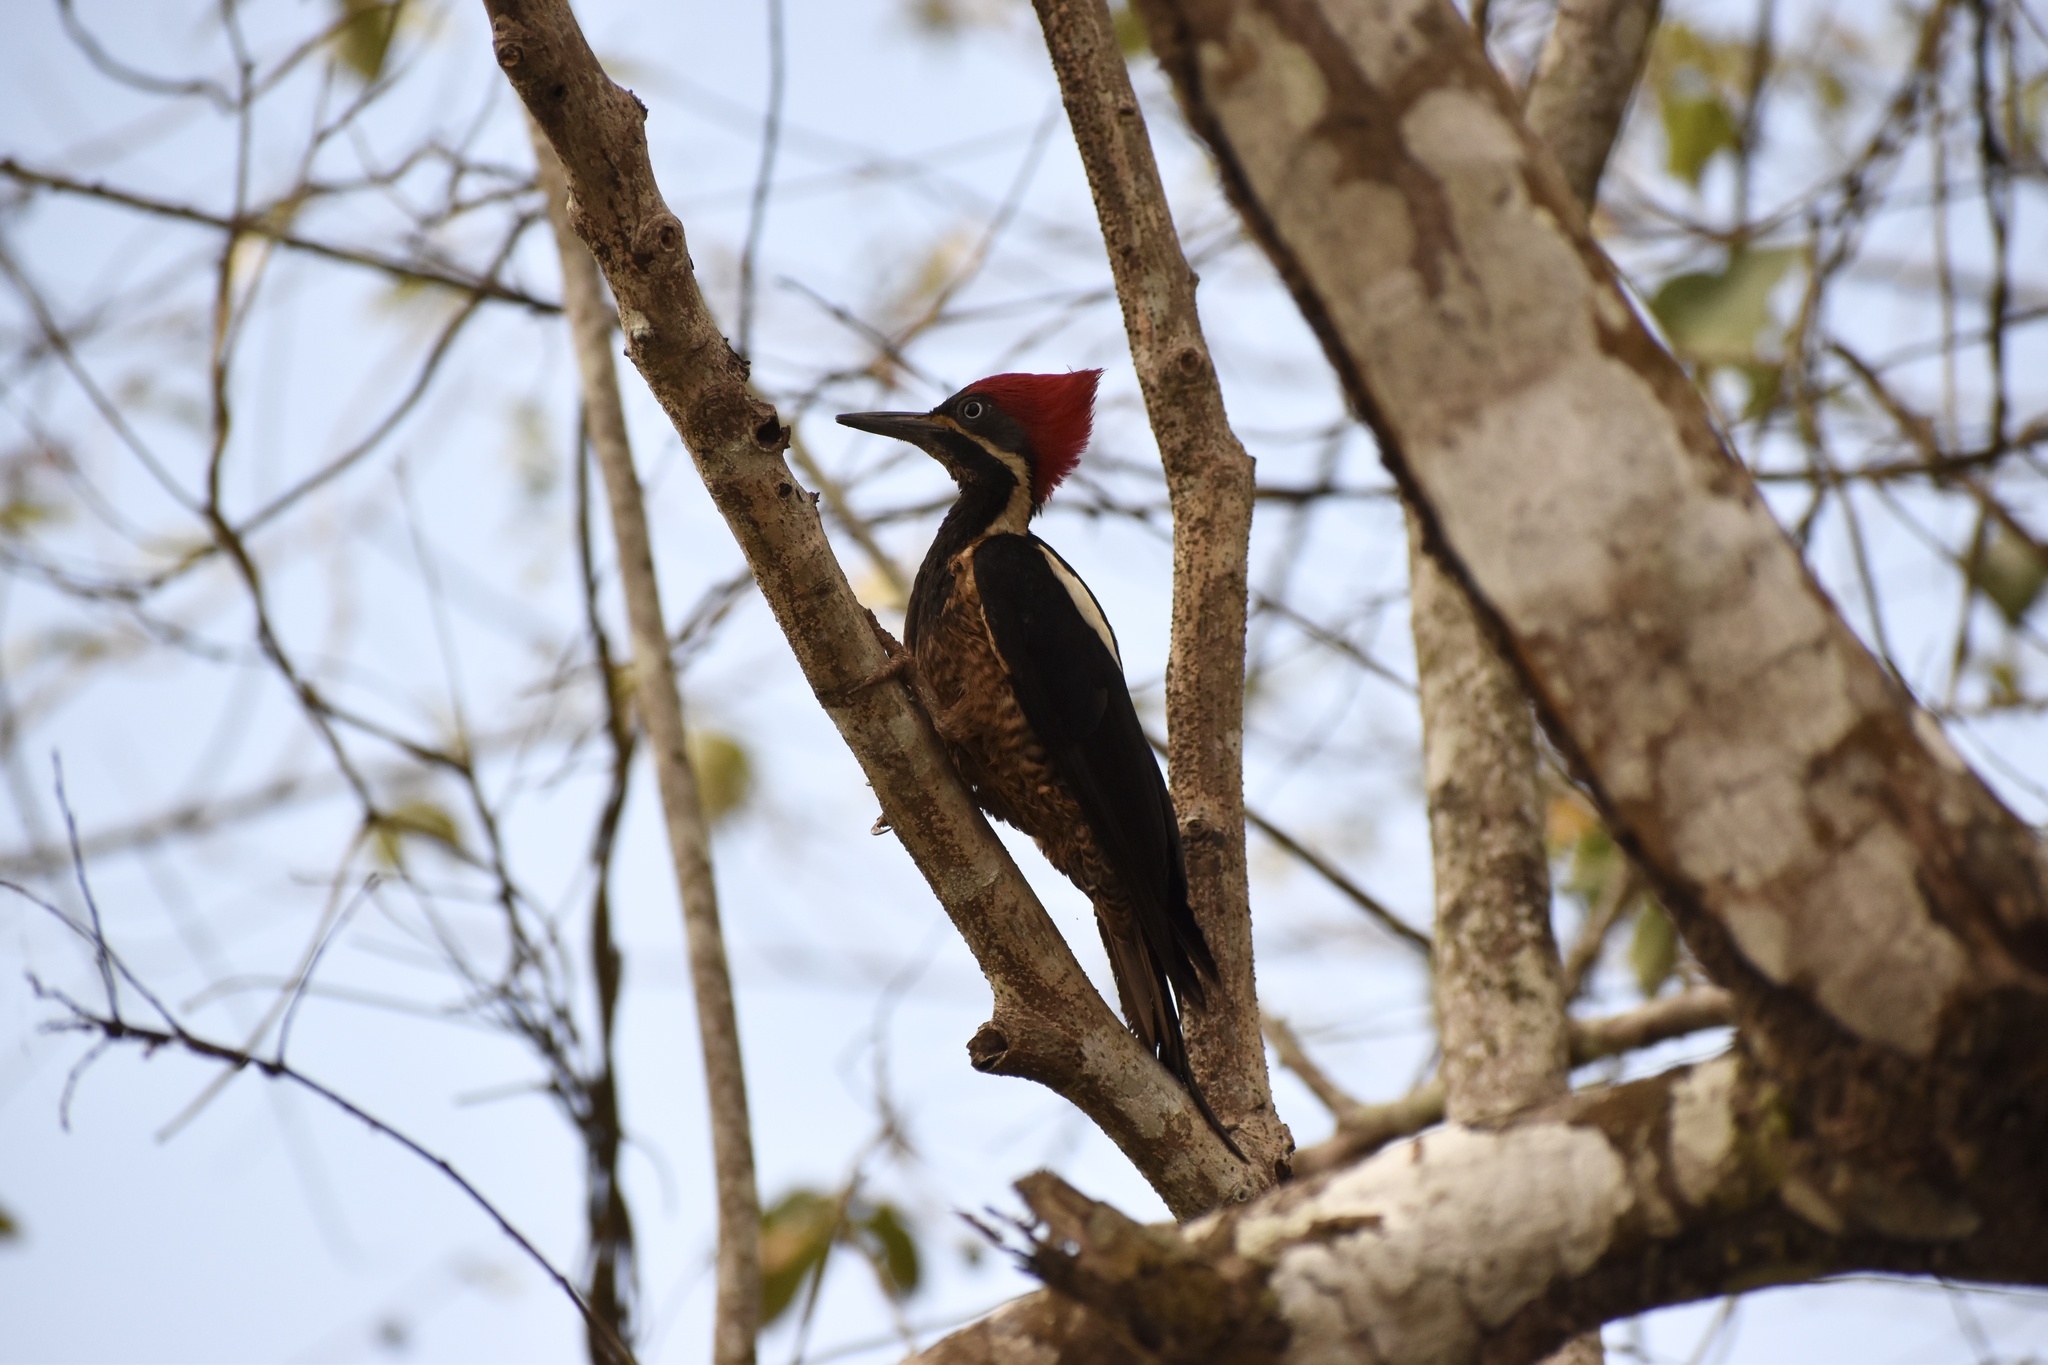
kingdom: Animalia
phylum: Chordata
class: Aves
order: Piciformes
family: Picidae
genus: Dryocopus
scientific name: Dryocopus lineatus
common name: Lineated woodpecker
